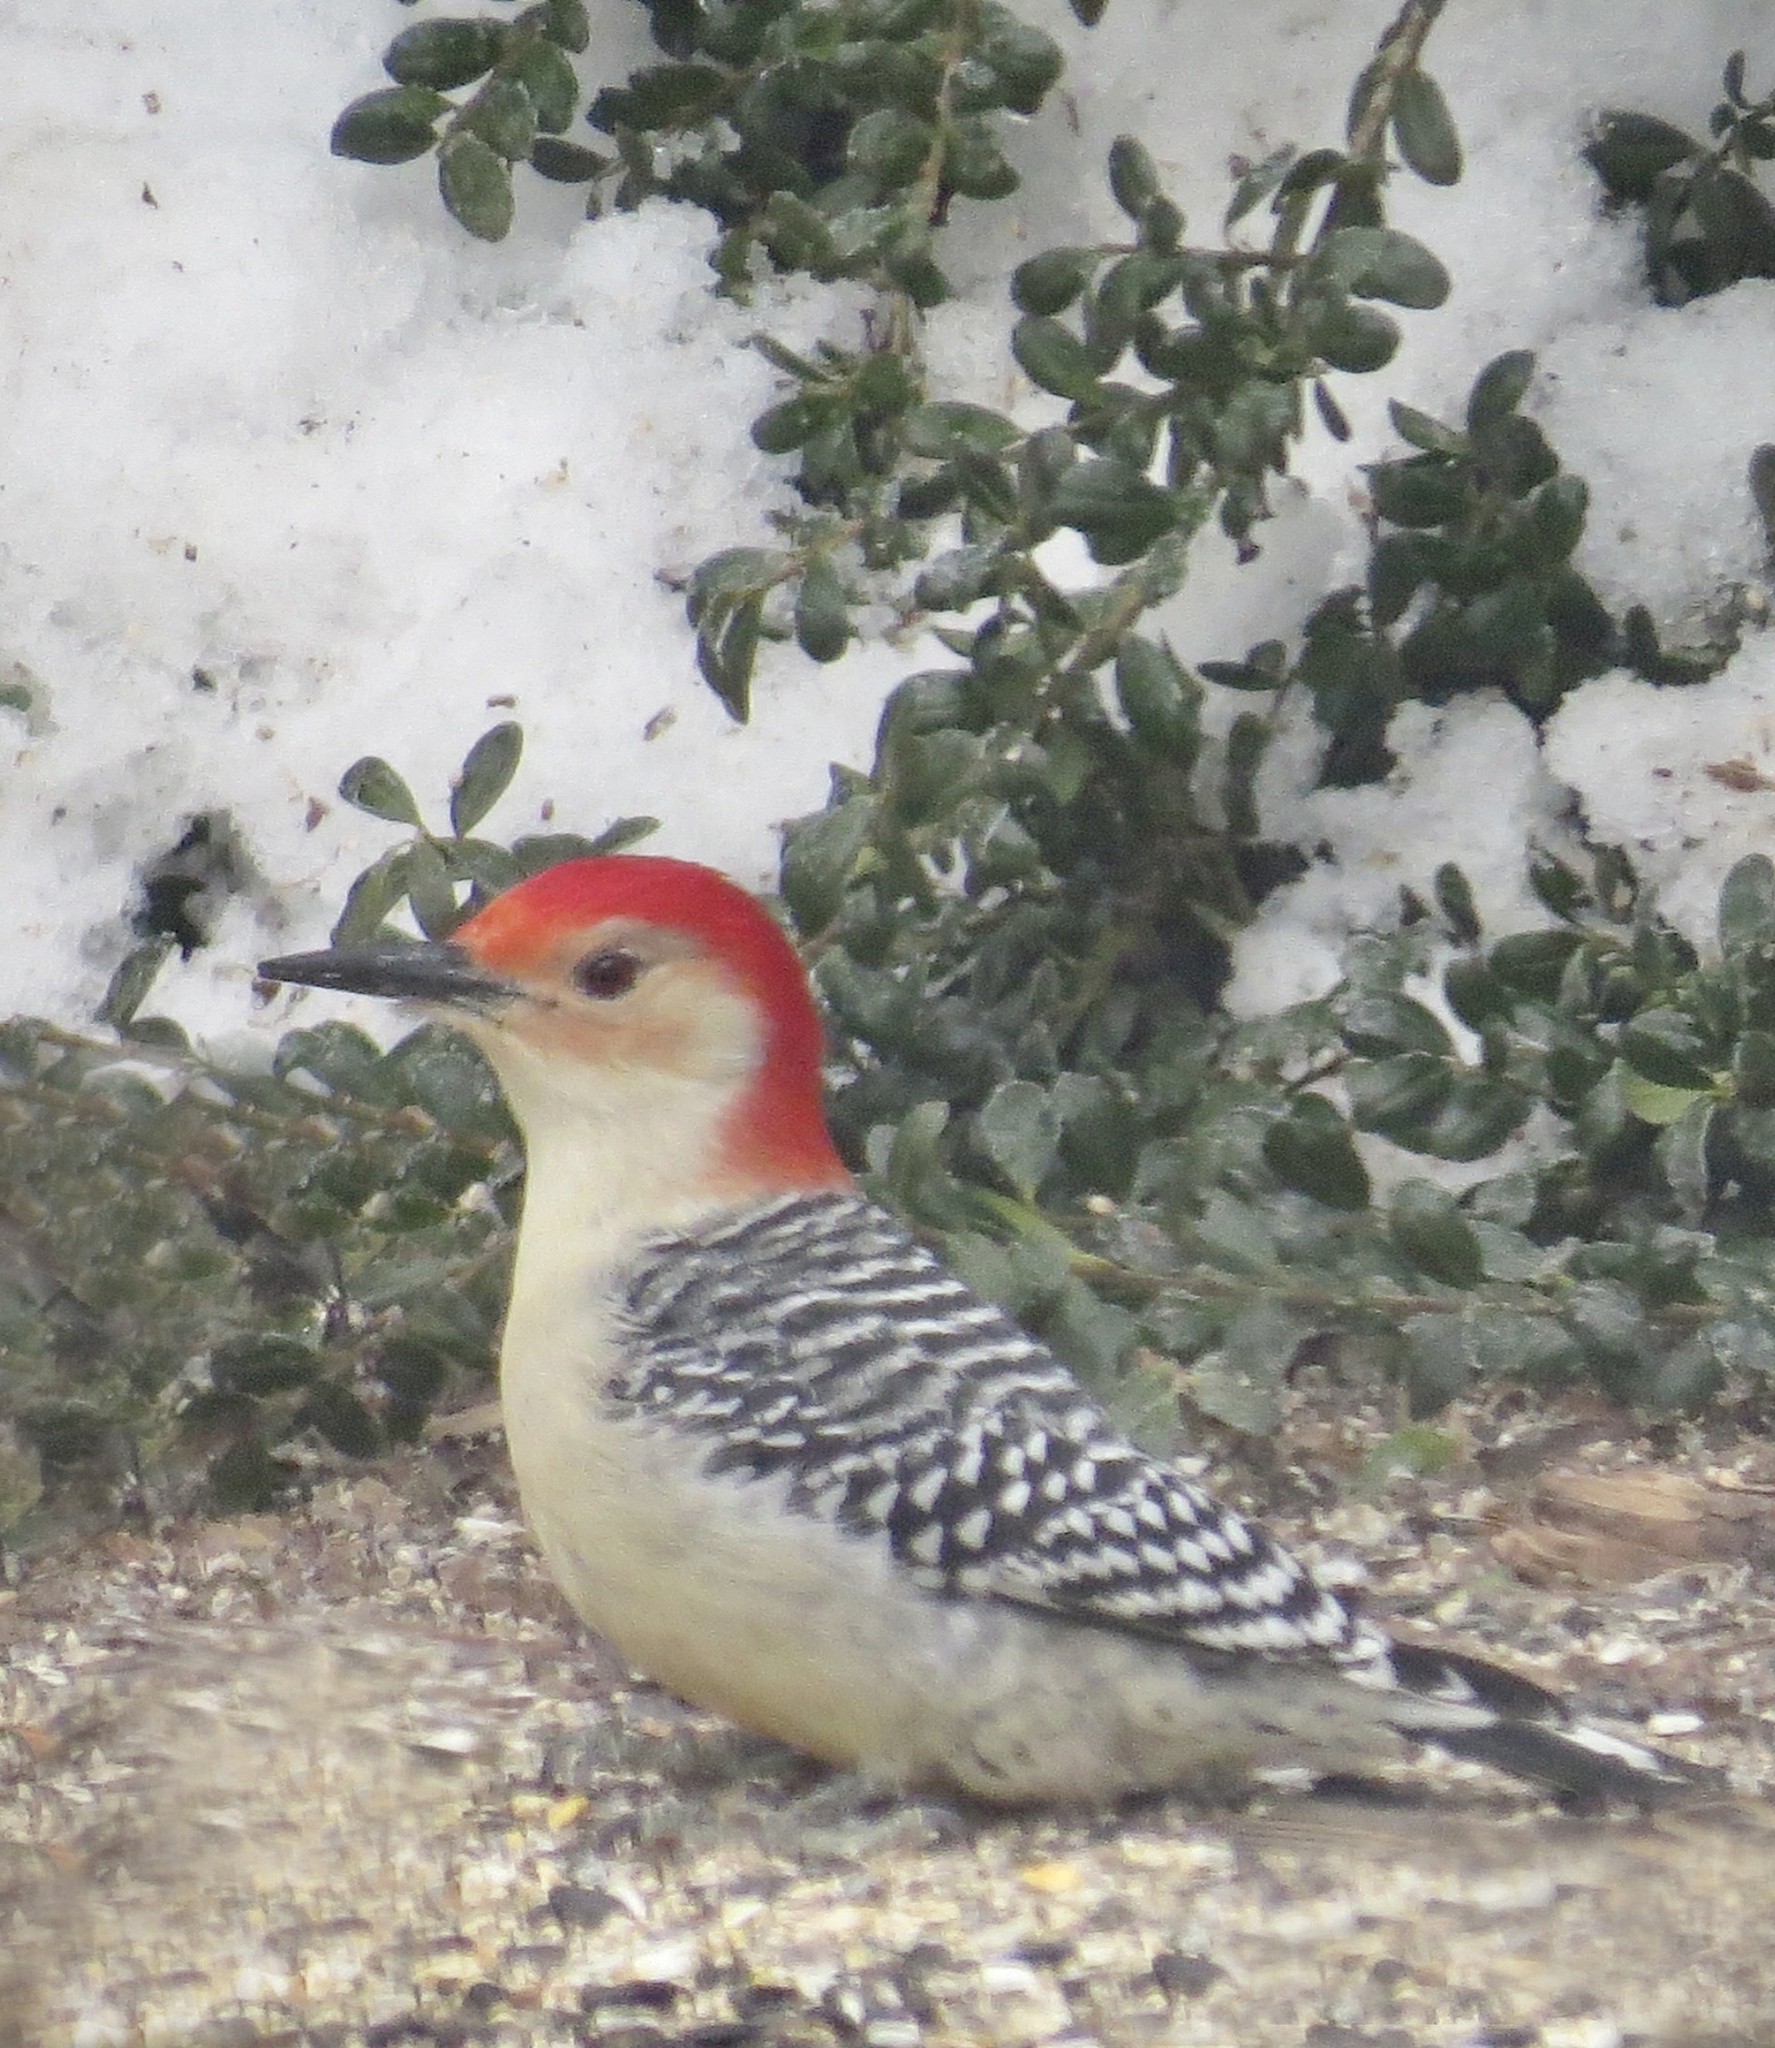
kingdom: Animalia
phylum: Chordata
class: Aves
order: Piciformes
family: Picidae
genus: Melanerpes
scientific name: Melanerpes carolinus
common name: Red-bellied woodpecker
